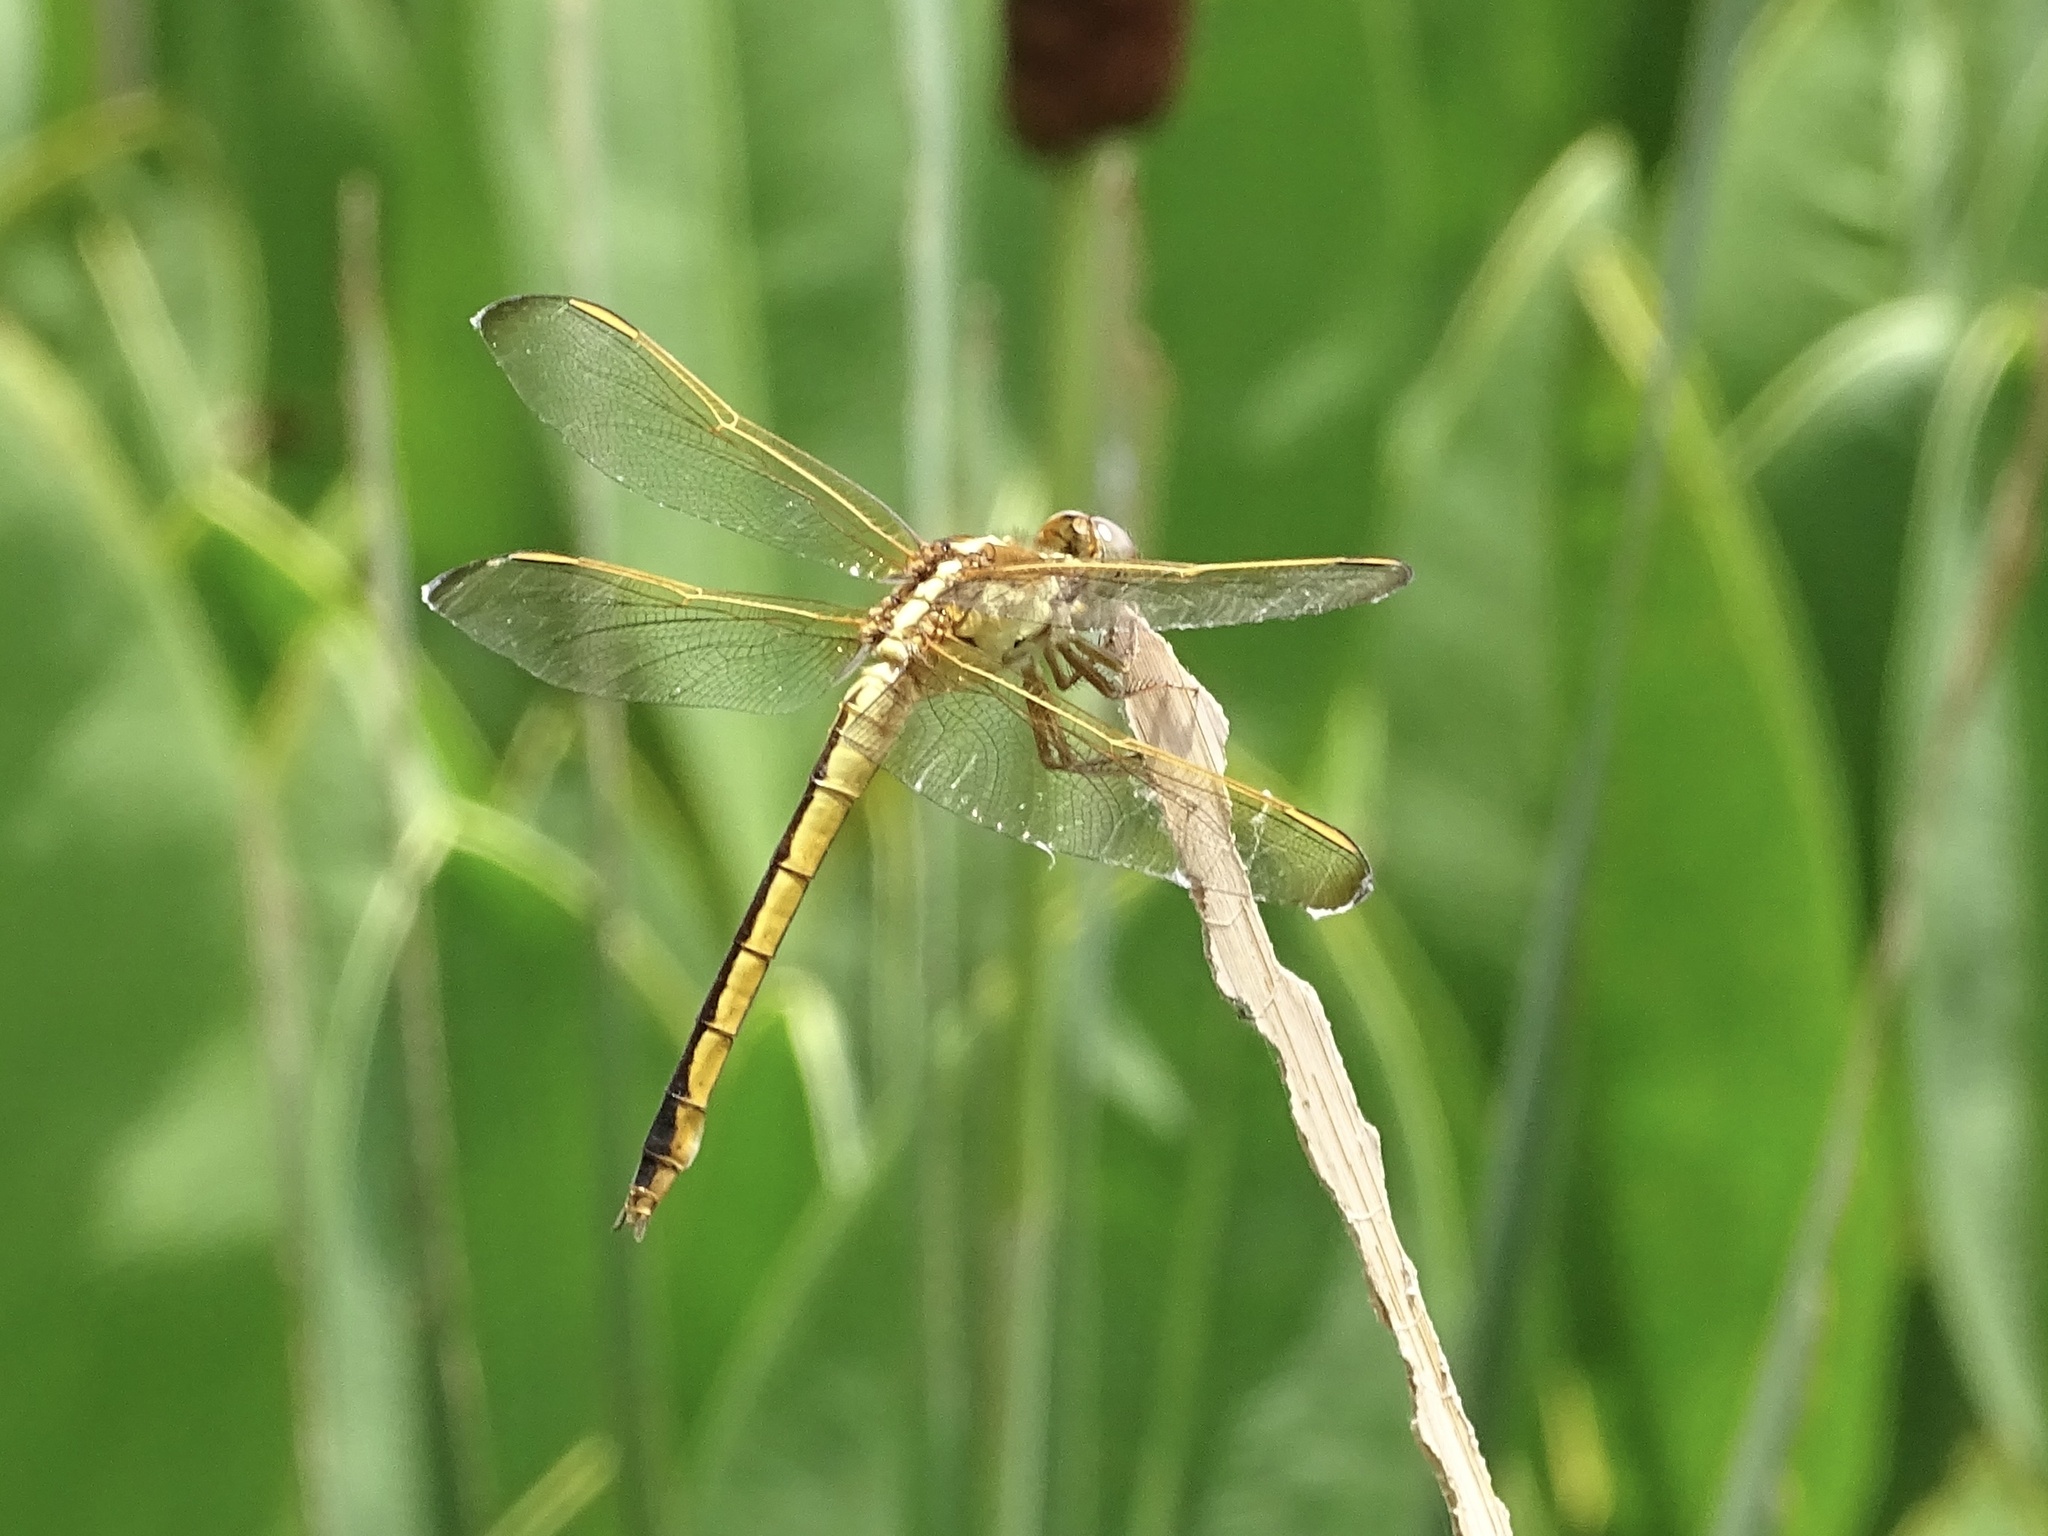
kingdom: Animalia
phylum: Arthropoda
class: Insecta
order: Odonata
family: Libellulidae
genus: Libellula
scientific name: Libellula needhami
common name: Needham's skimmer
